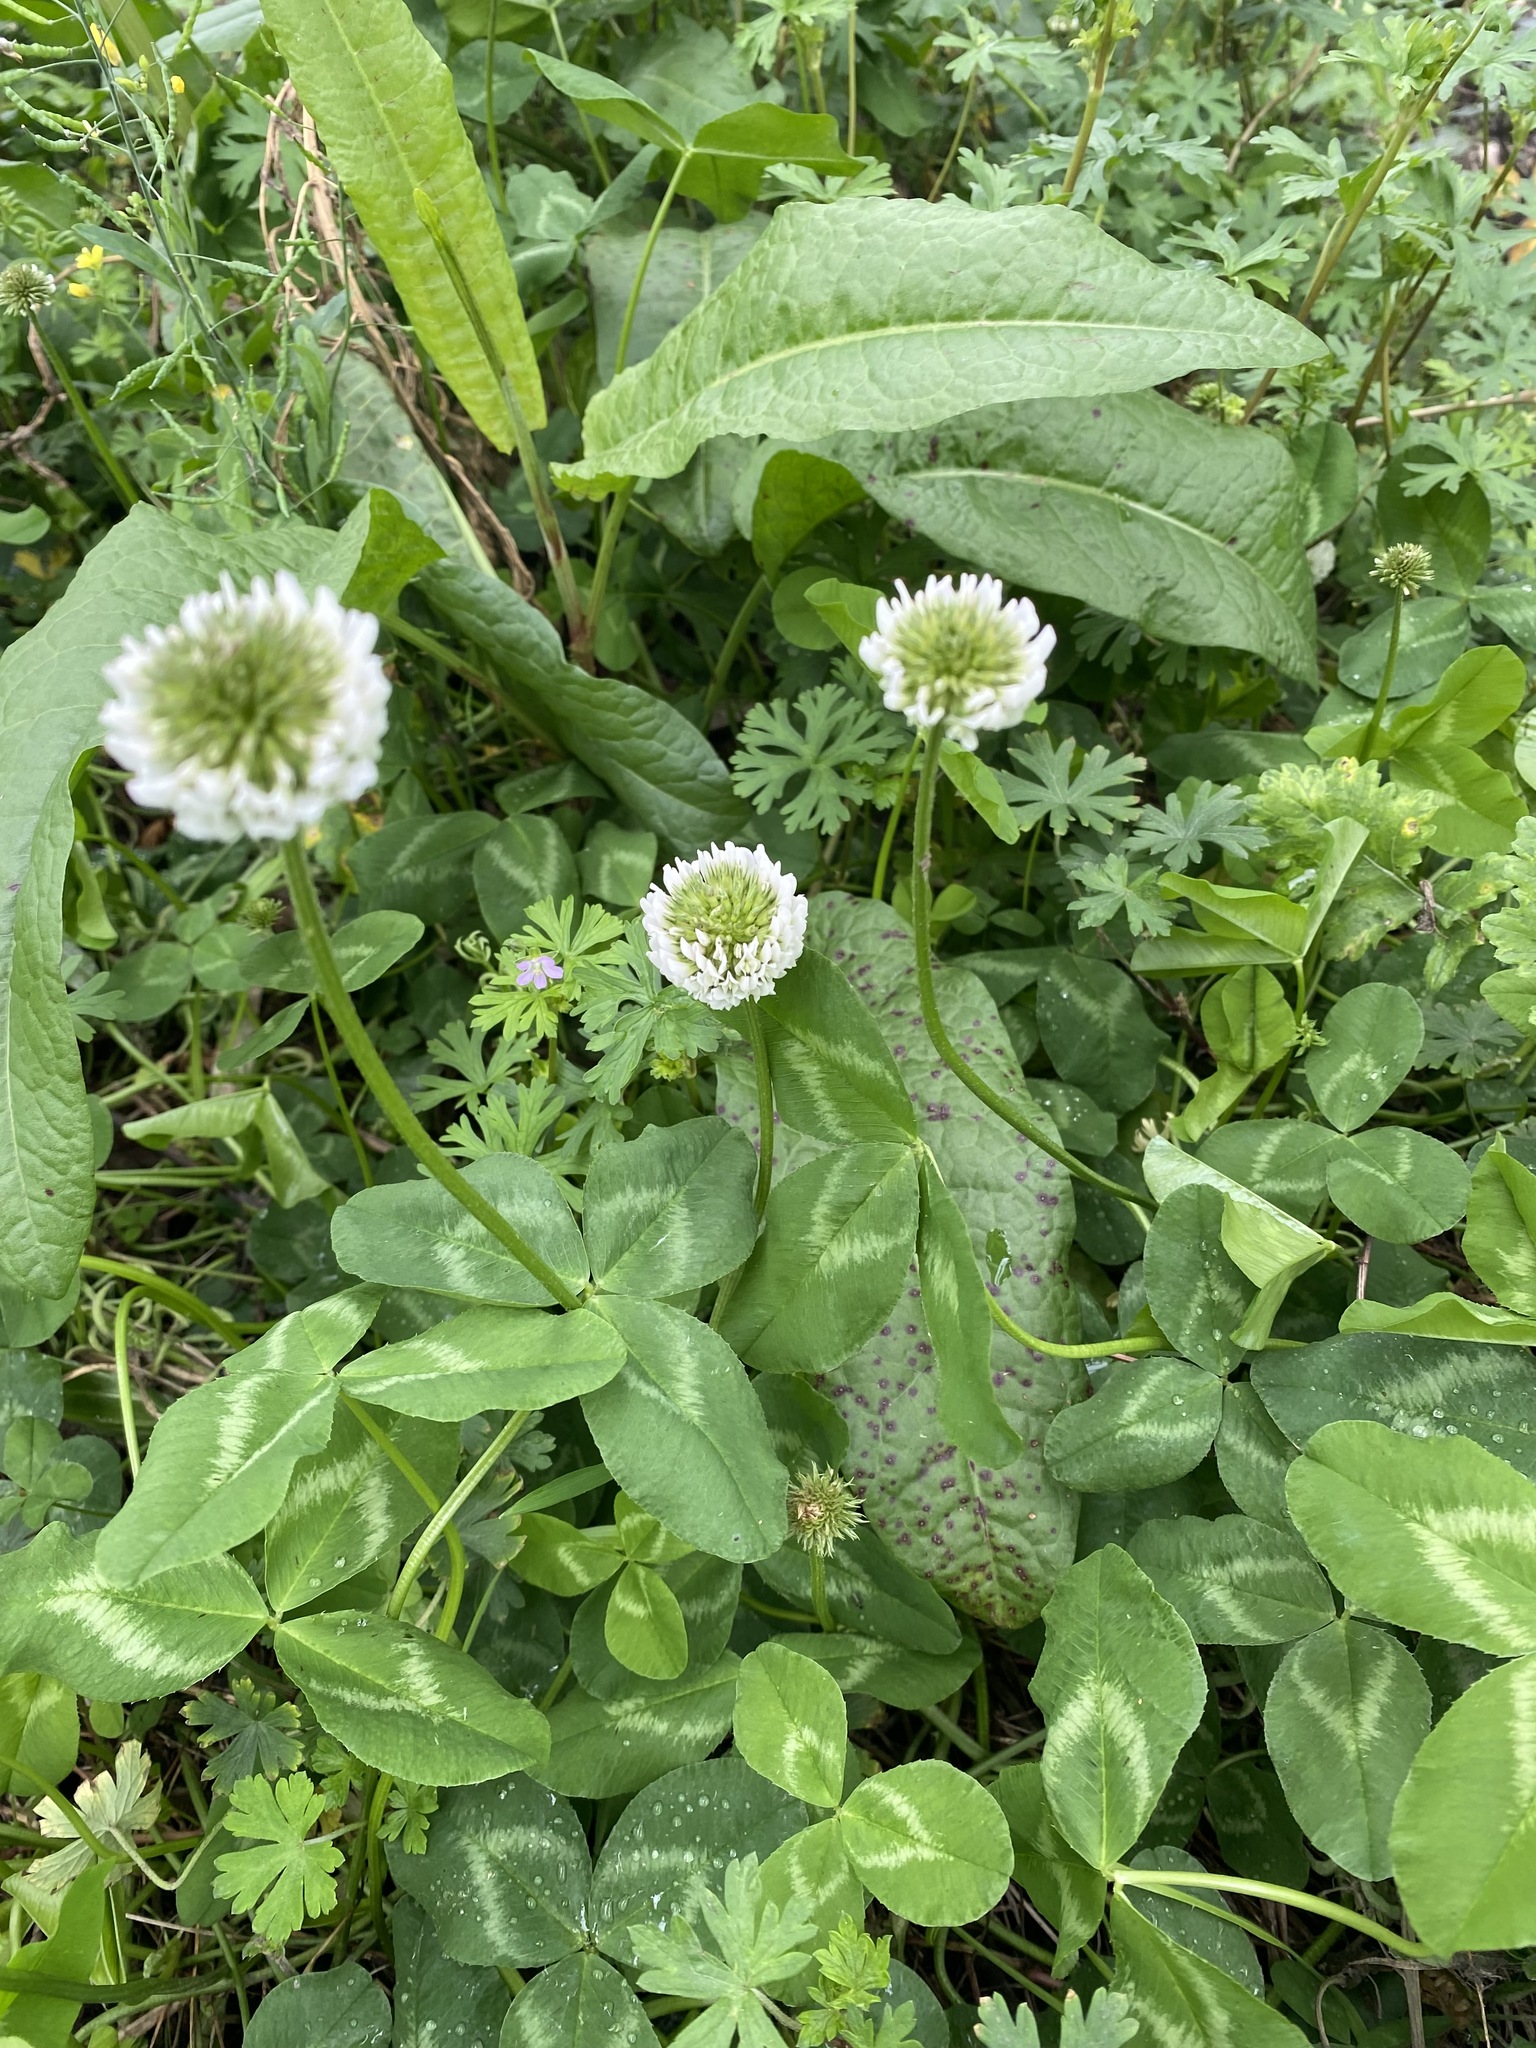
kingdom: Plantae
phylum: Tracheophyta
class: Magnoliopsida
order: Fabales
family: Fabaceae
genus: Trifolium
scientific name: Trifolium repens
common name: White clover
